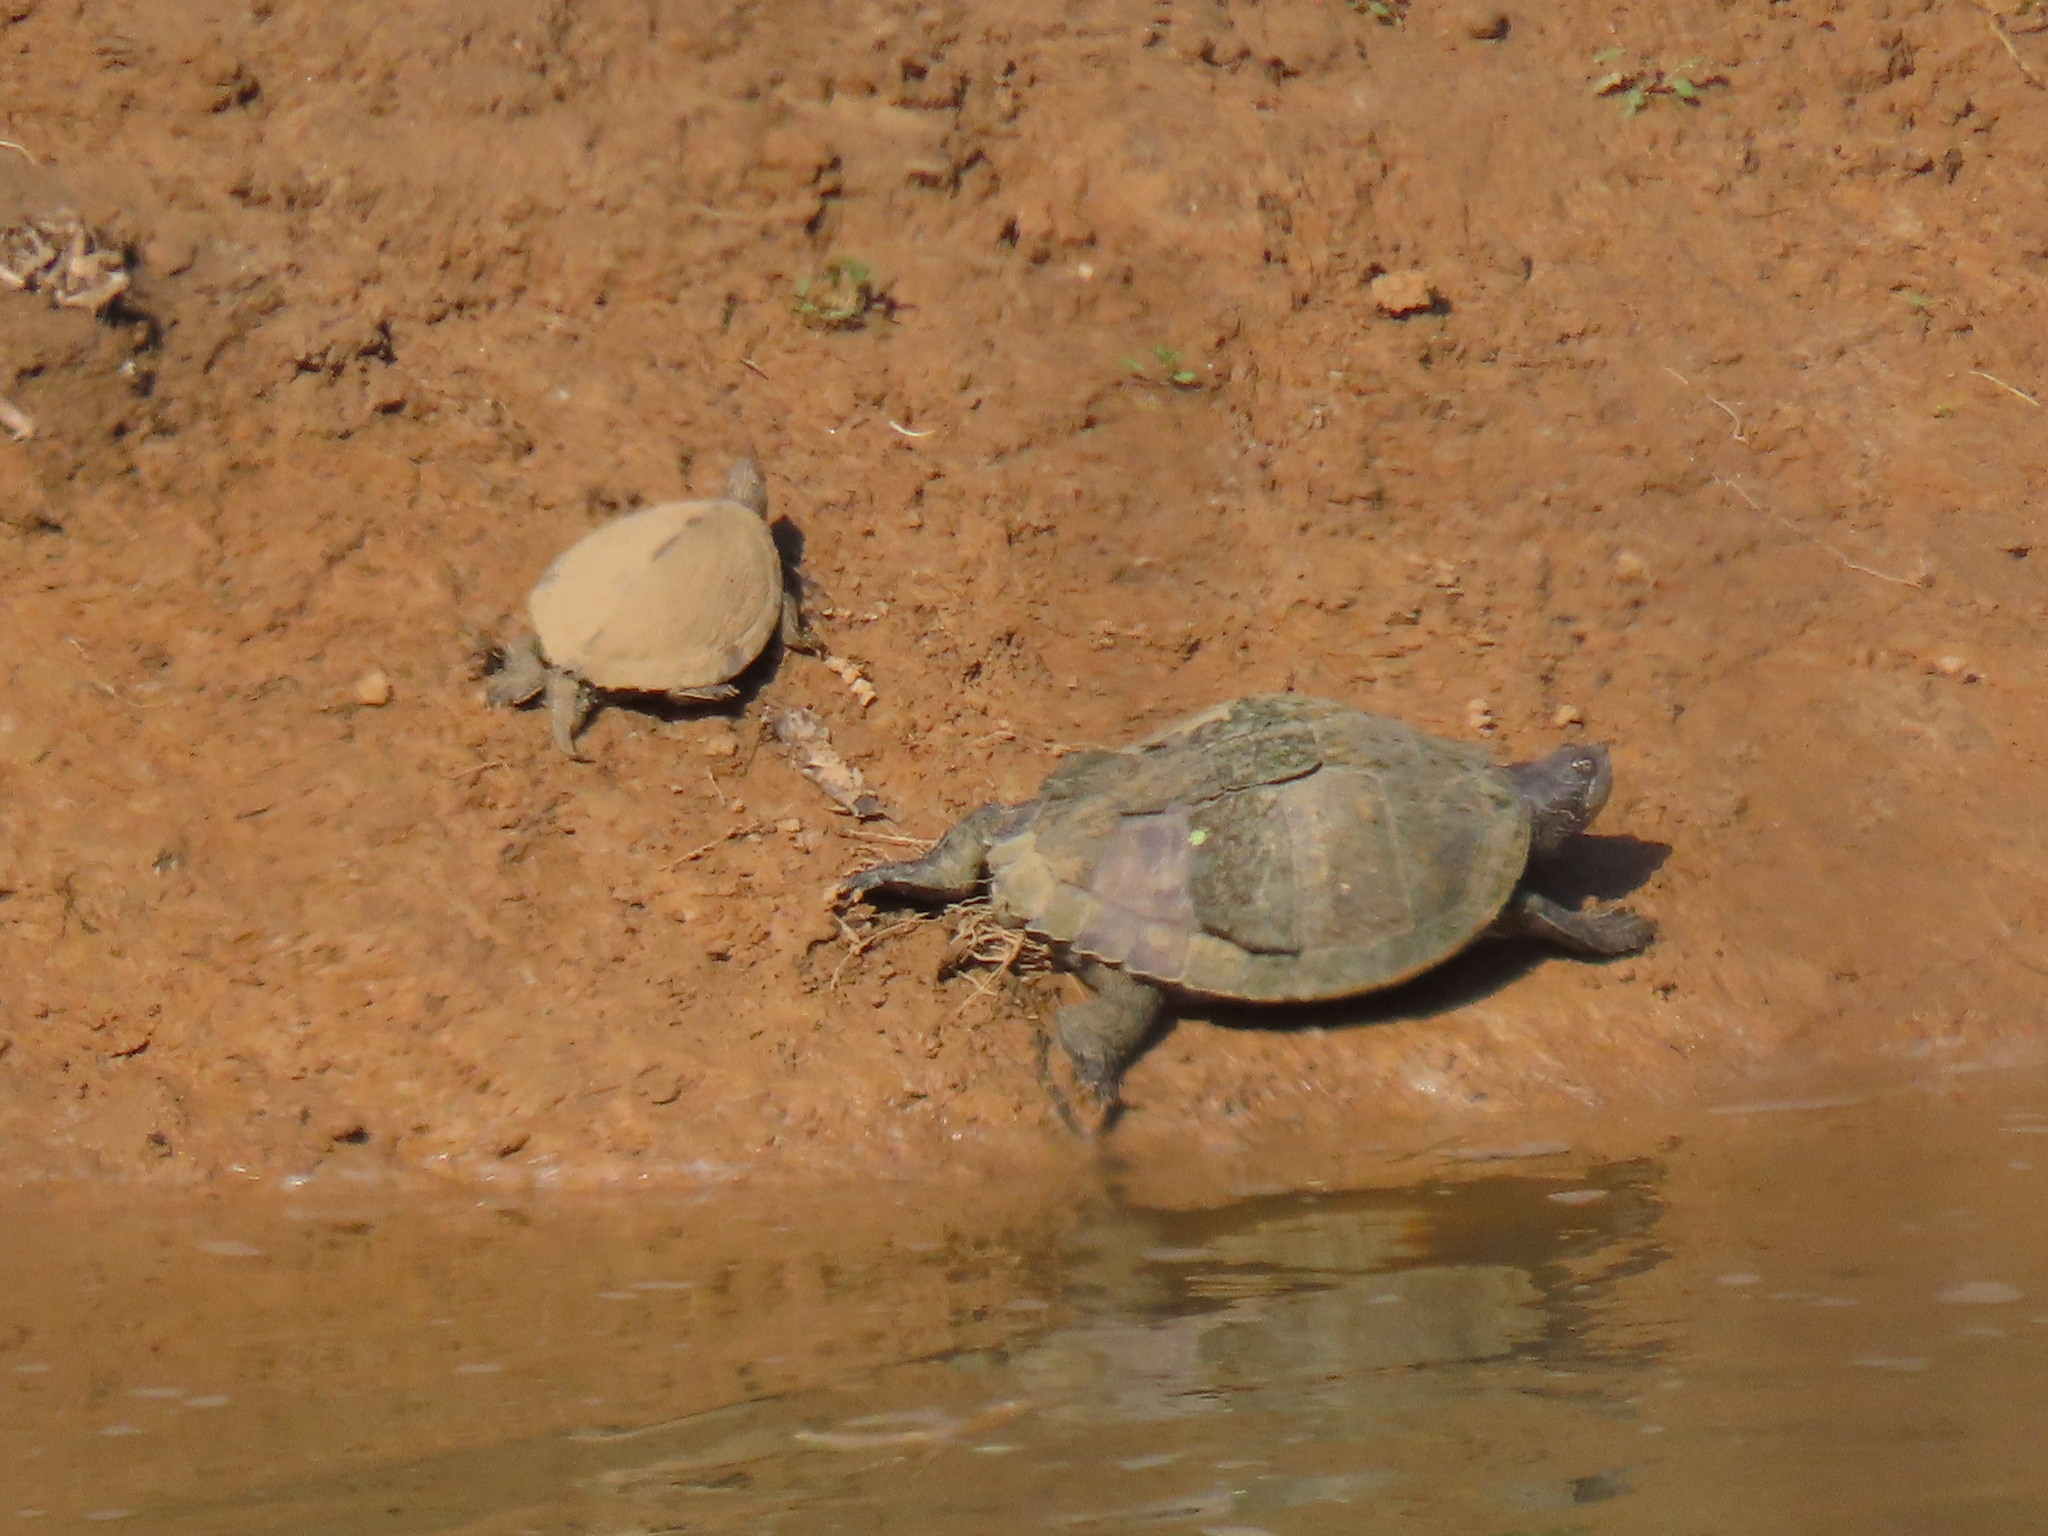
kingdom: Animalia
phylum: Chordata
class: Testudines
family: Emydidae
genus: Graptemys
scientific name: Graptemys pseudogeographica
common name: False map turtle
